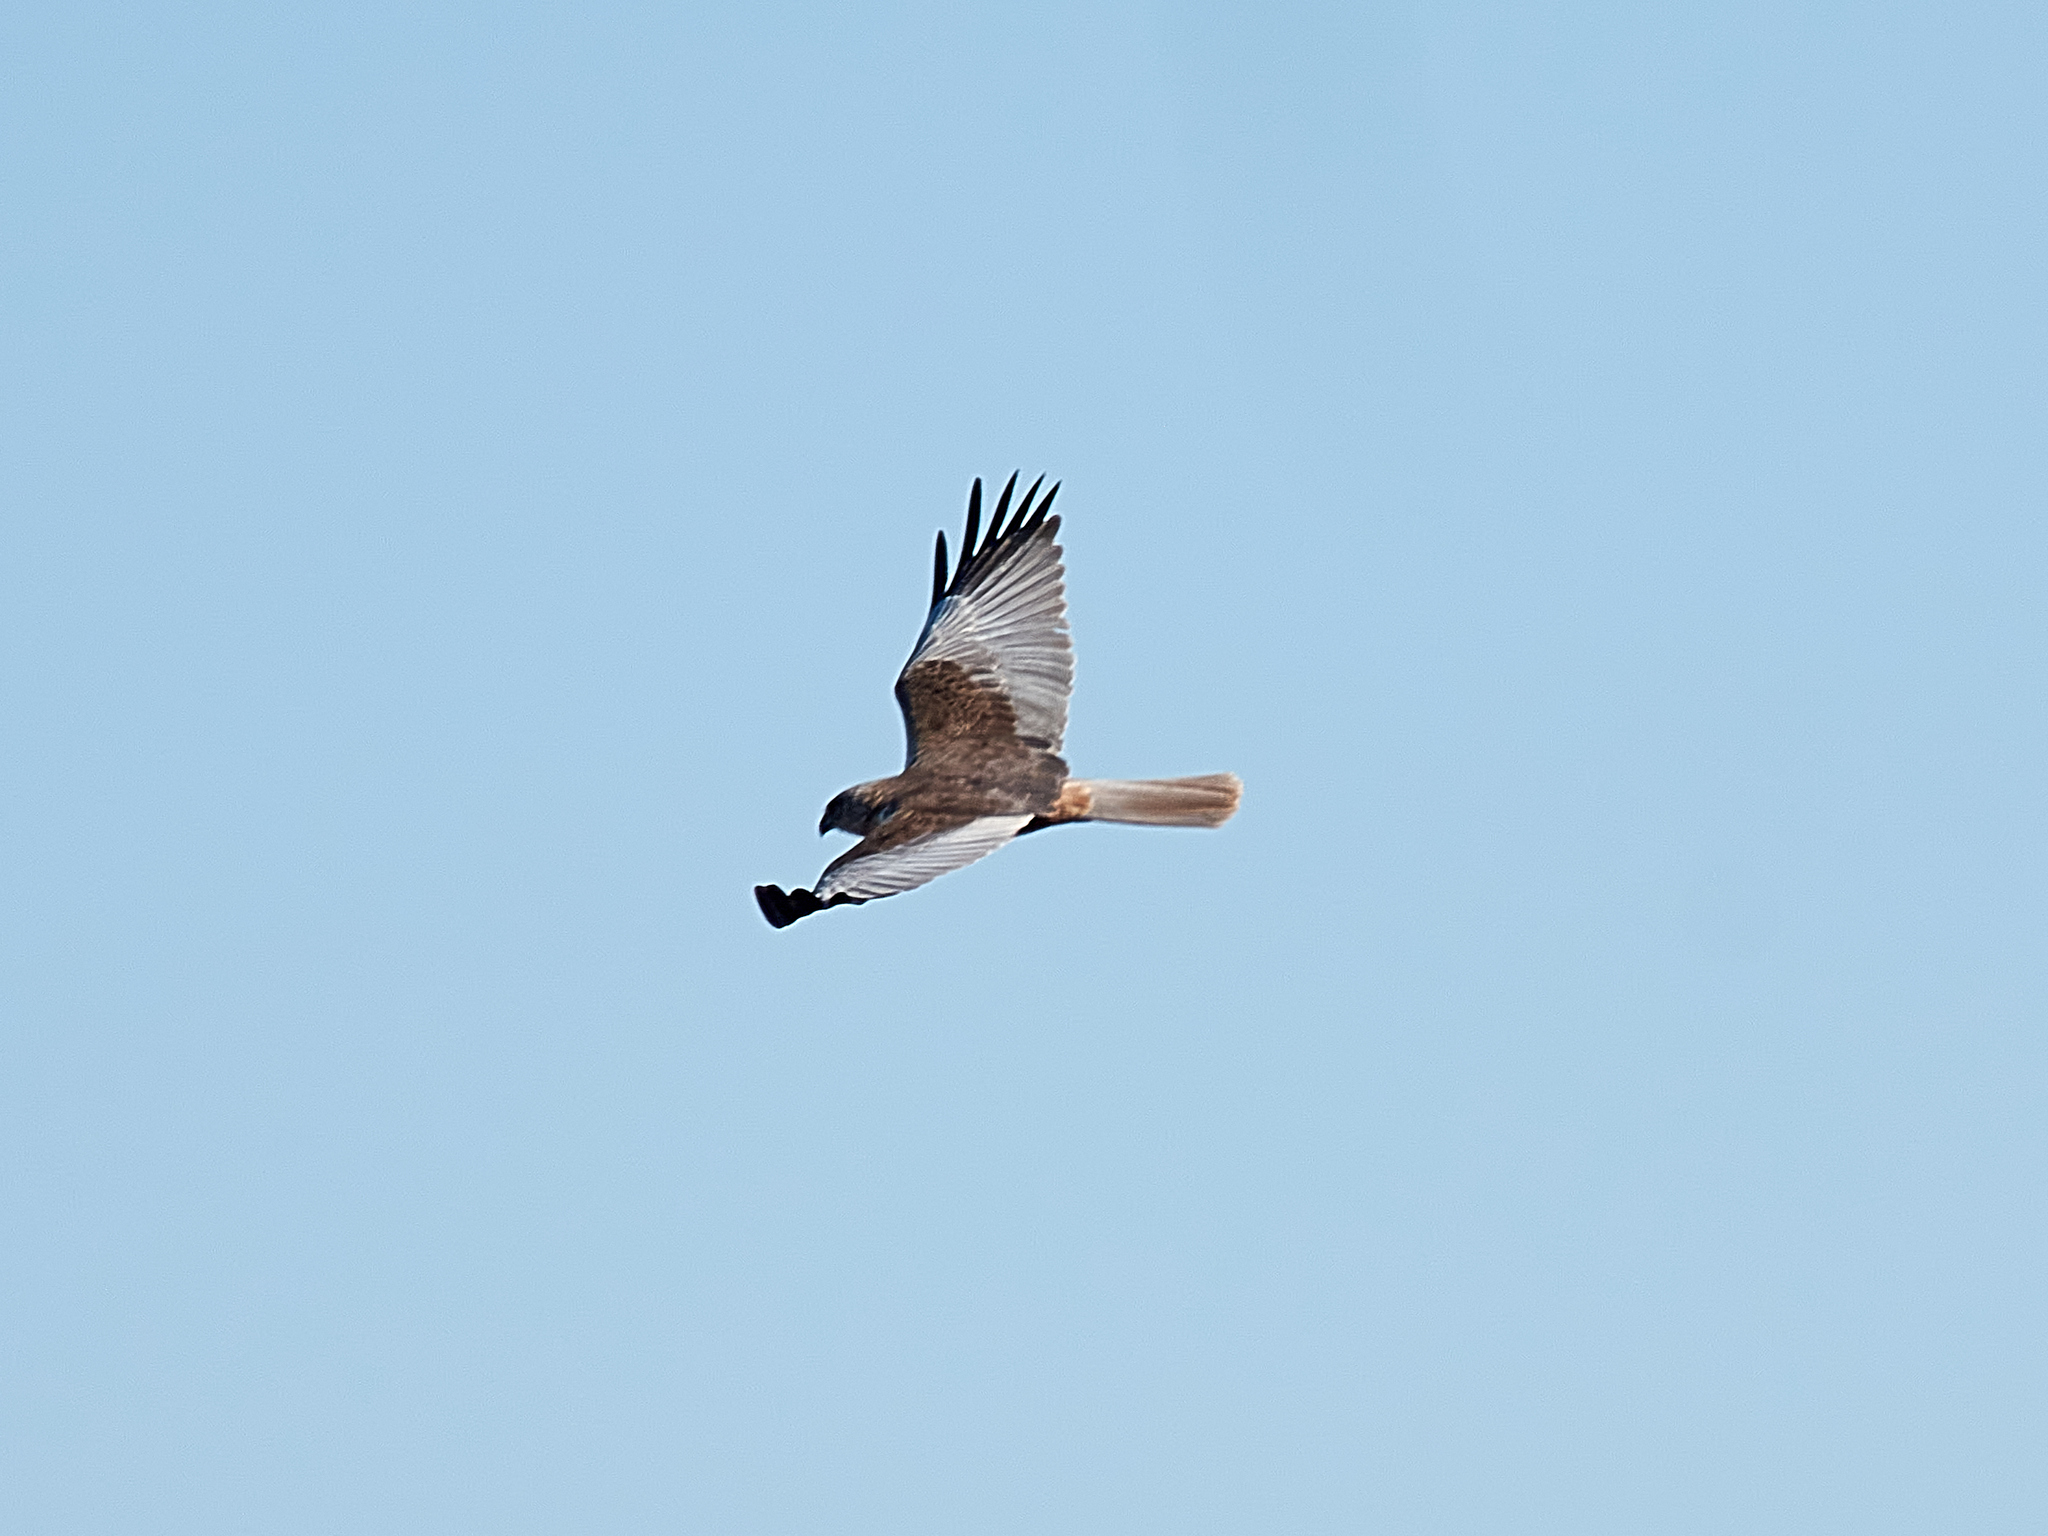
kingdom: Animalia
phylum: Chordata
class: Aves
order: Accipitriformes
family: Accipitridae
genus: Circus
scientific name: Circus aeruginosus
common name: Western marsh harrier
